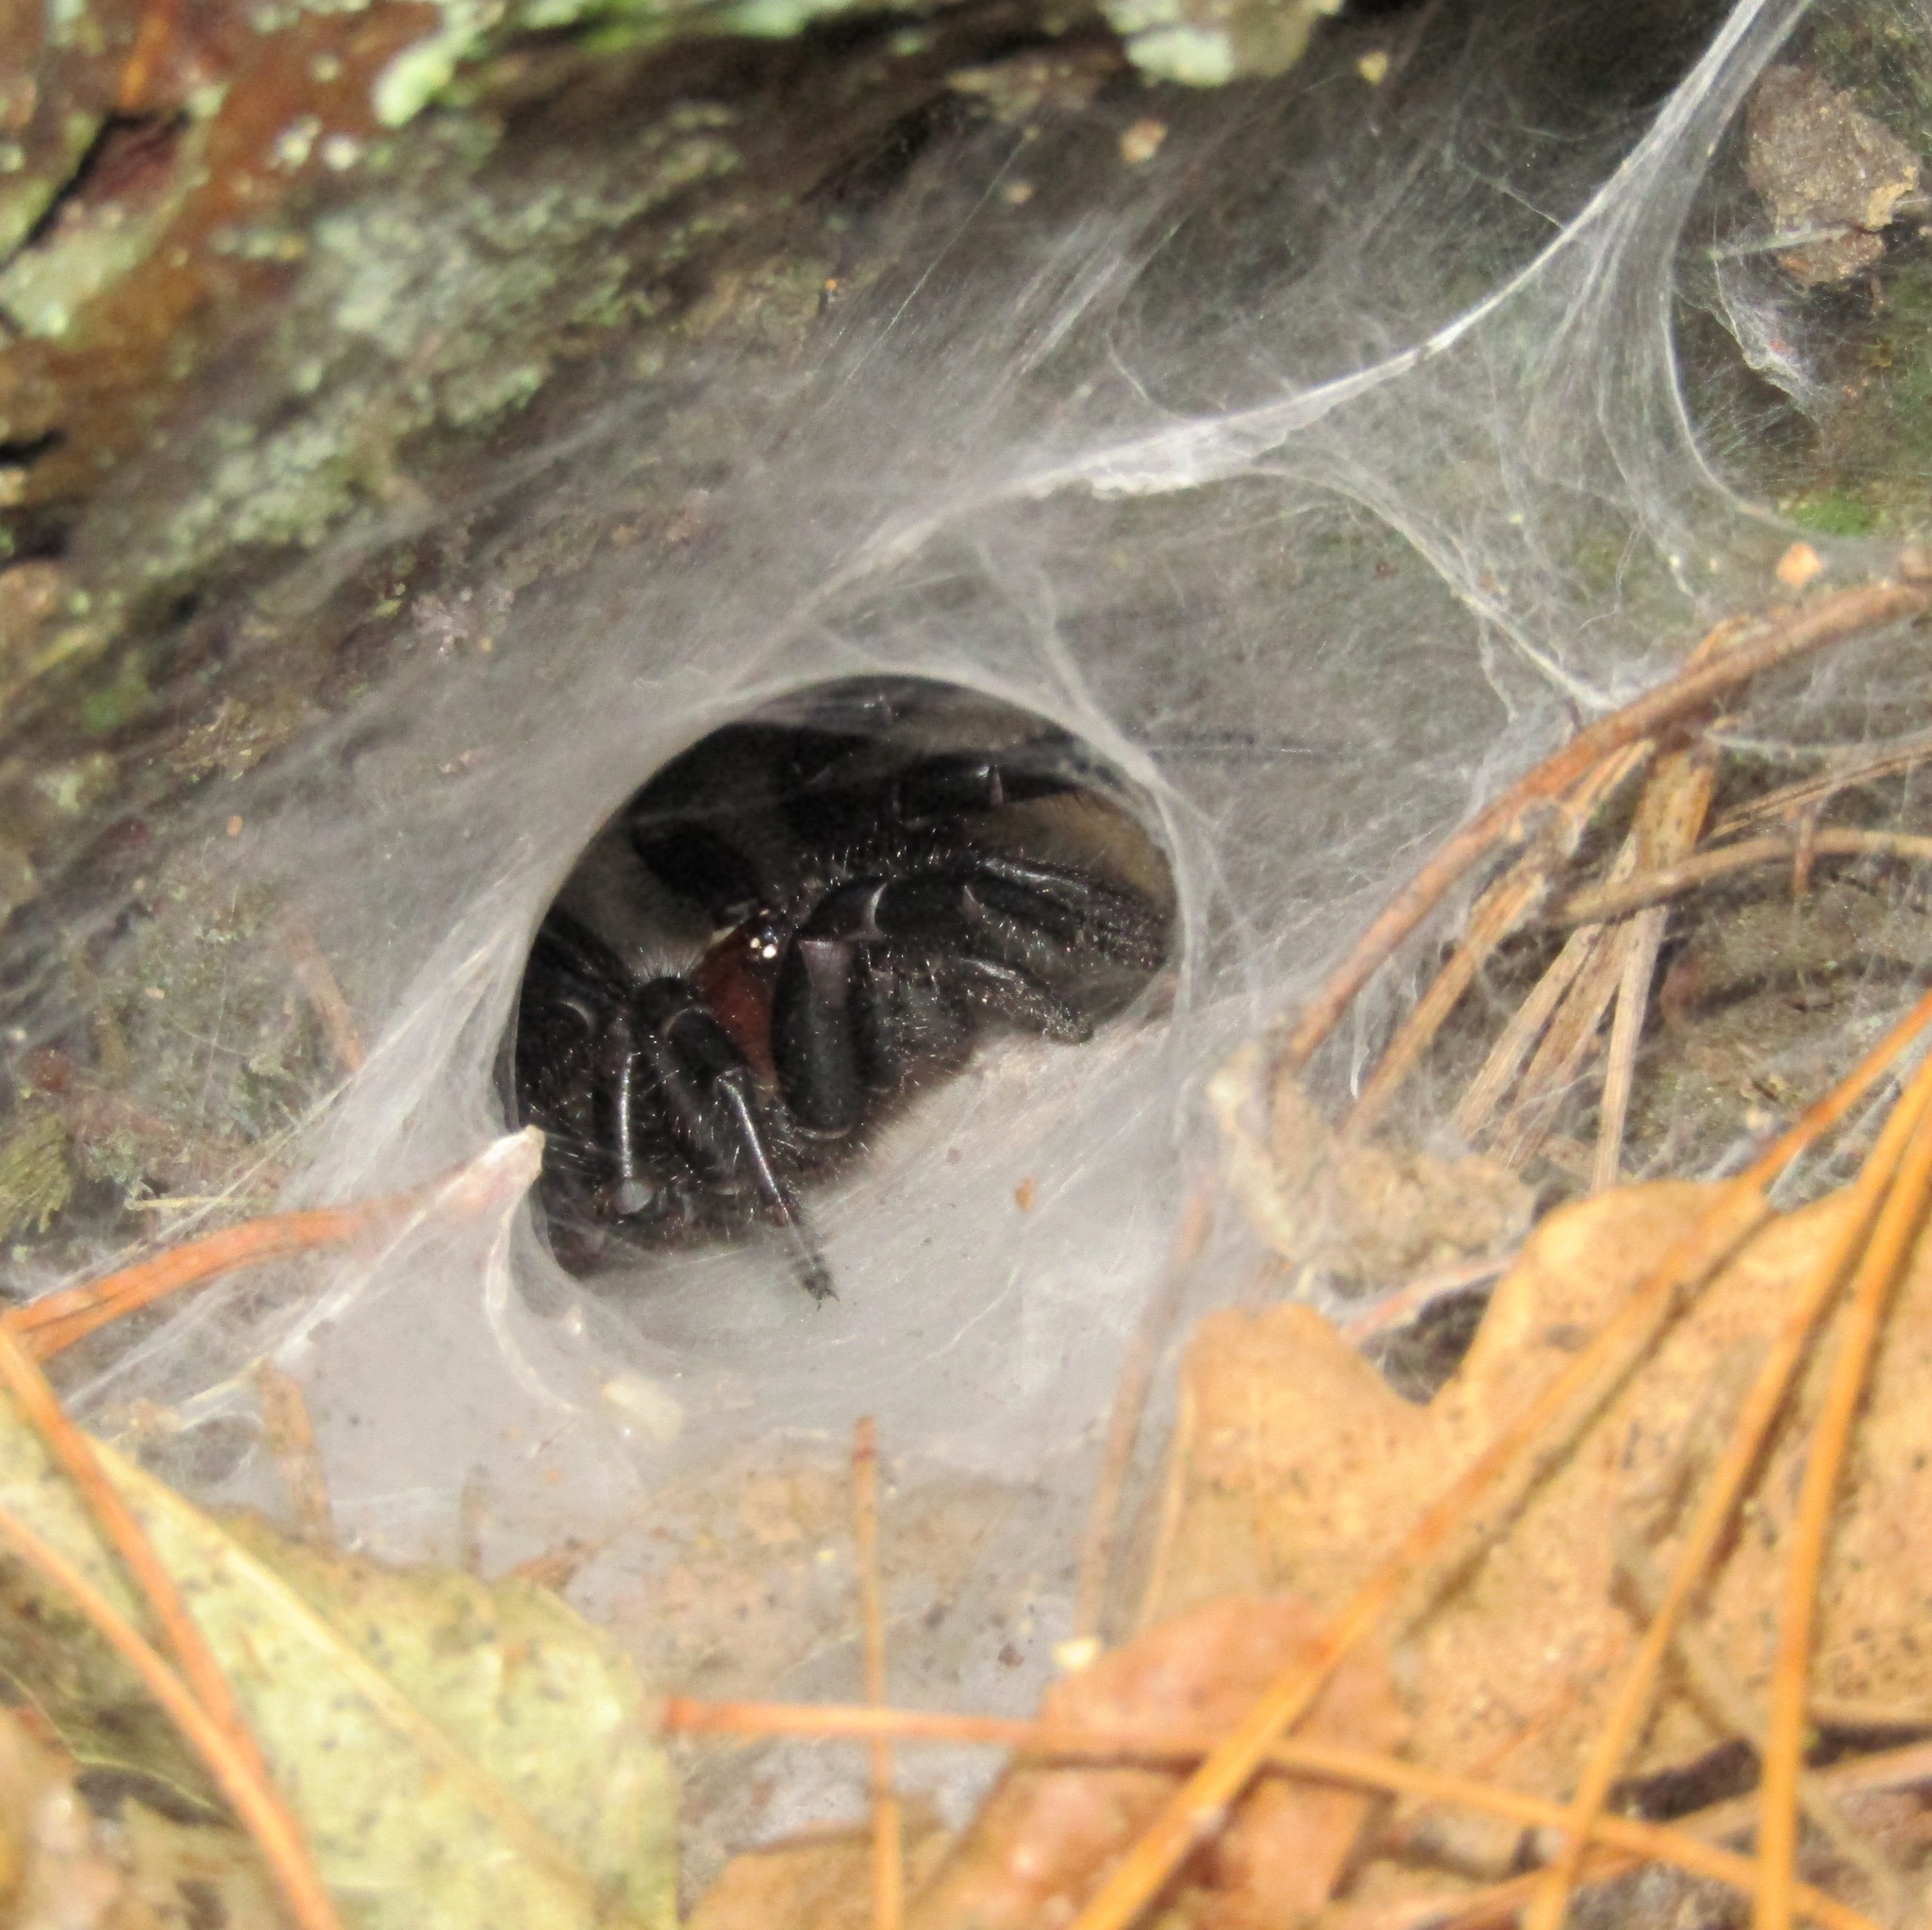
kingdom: Animalia
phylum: Arthropoda
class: Arachnida
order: Araneae
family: Porrhothelidae
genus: Porrhothele
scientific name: Porrhothele antipodiana
